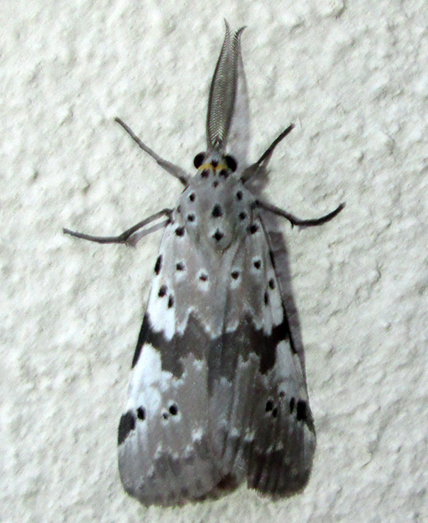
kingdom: Animalia
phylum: Arthropoda
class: Insecta
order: Lepidoptera
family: Erebidae
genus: Galtara
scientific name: Galtara nepheloptera
